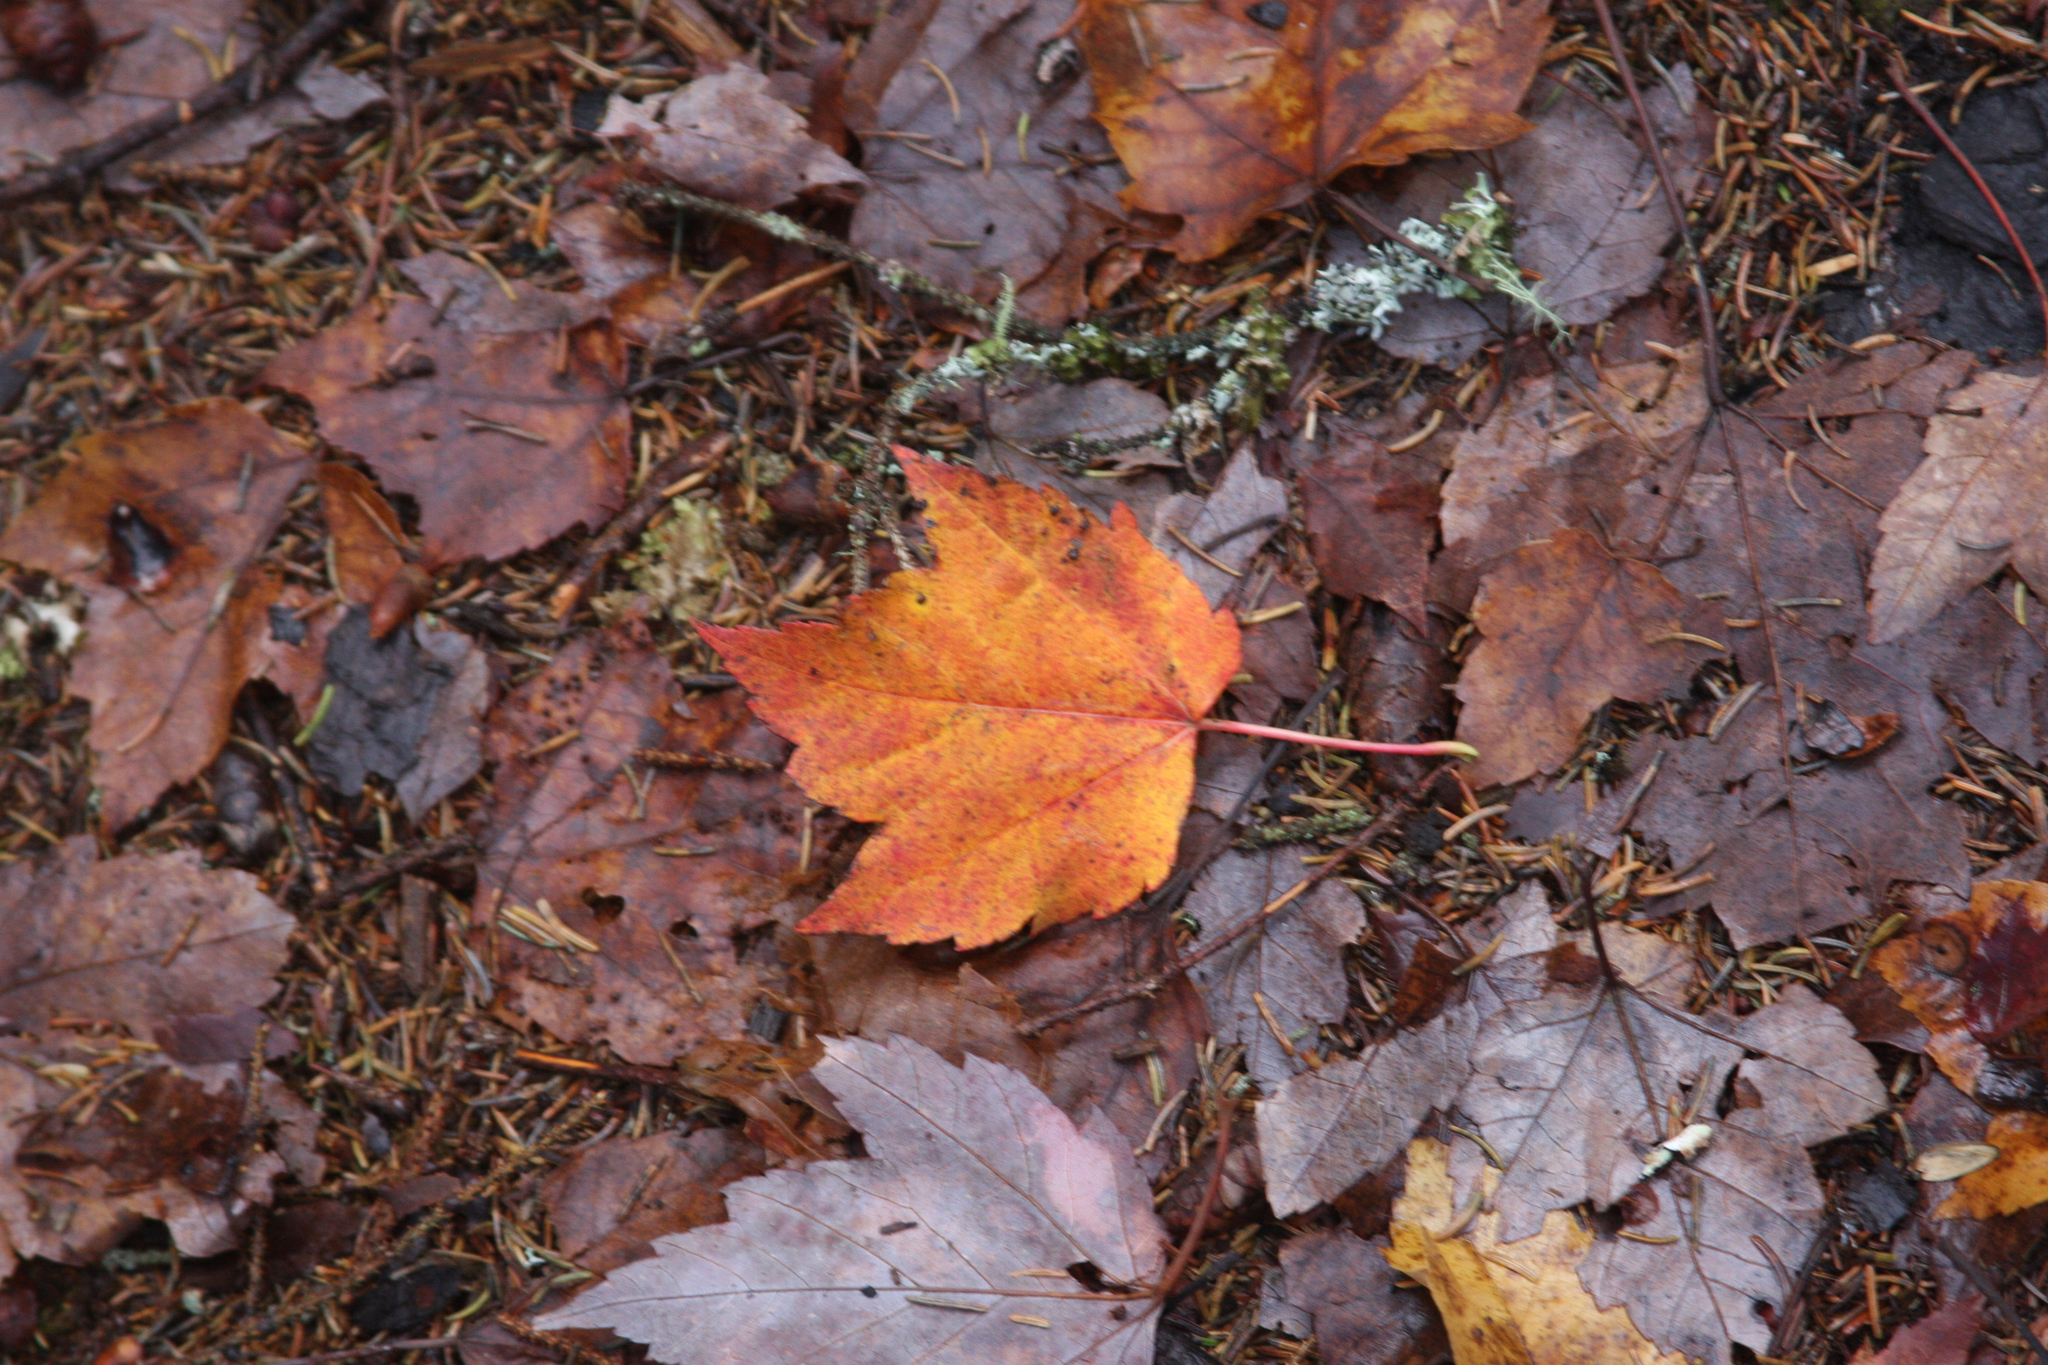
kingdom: Plantae
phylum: Tracheophyta
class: Magnoliopsida
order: Sapindales
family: Sapindaceae
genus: Acer
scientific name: Acer rubrum
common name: Red maple
